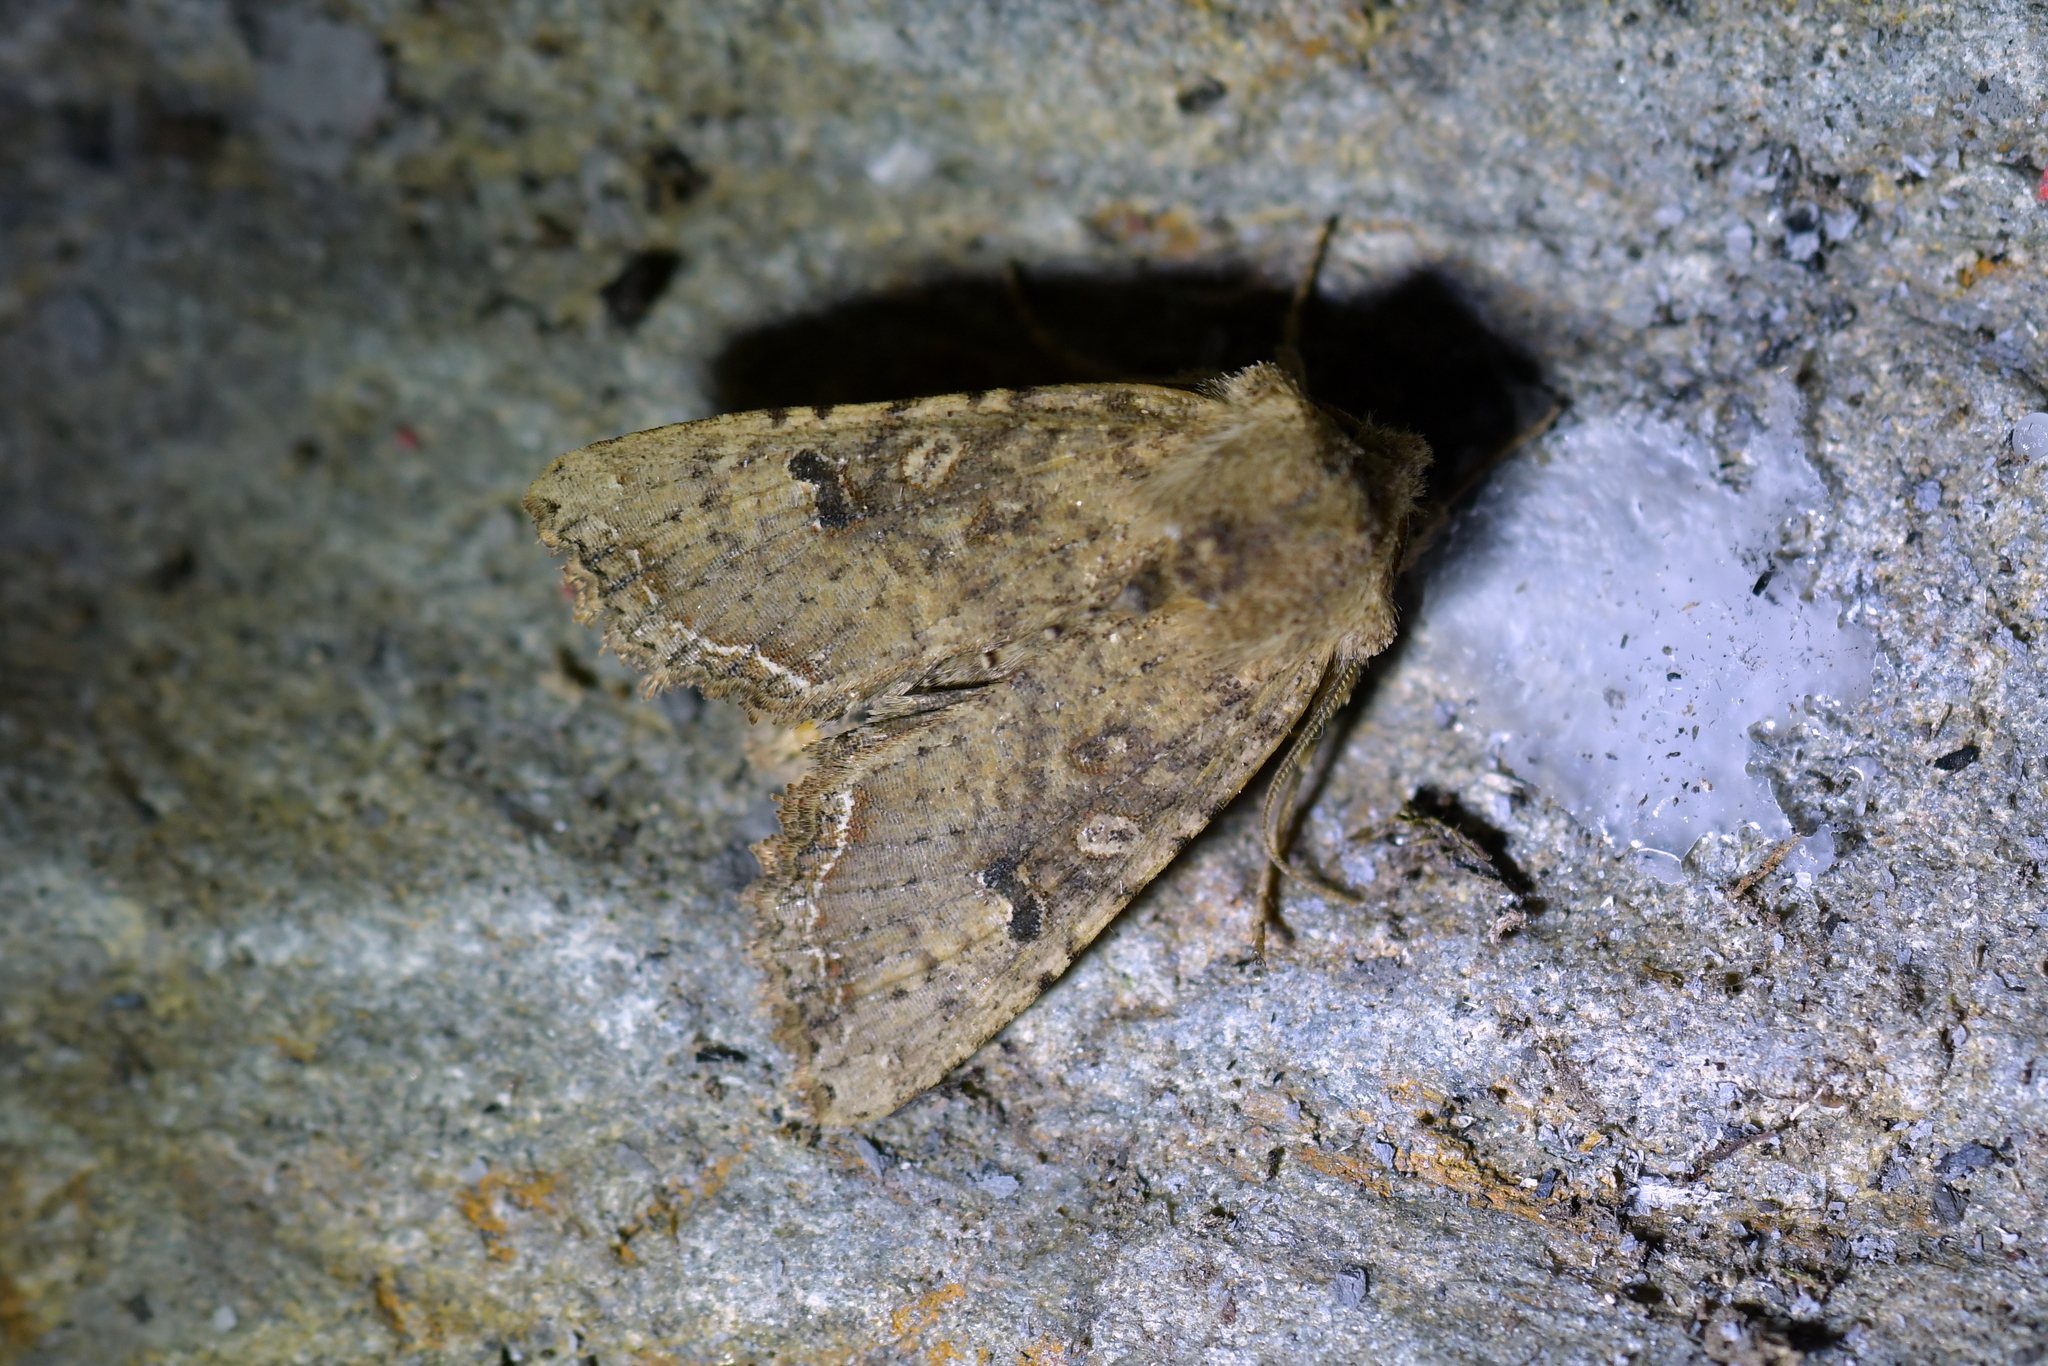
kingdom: Animalia
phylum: Arthropoda
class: Insecta
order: Lepidoptera
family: Noctuidae
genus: Meterana
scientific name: Meterana inchoata
